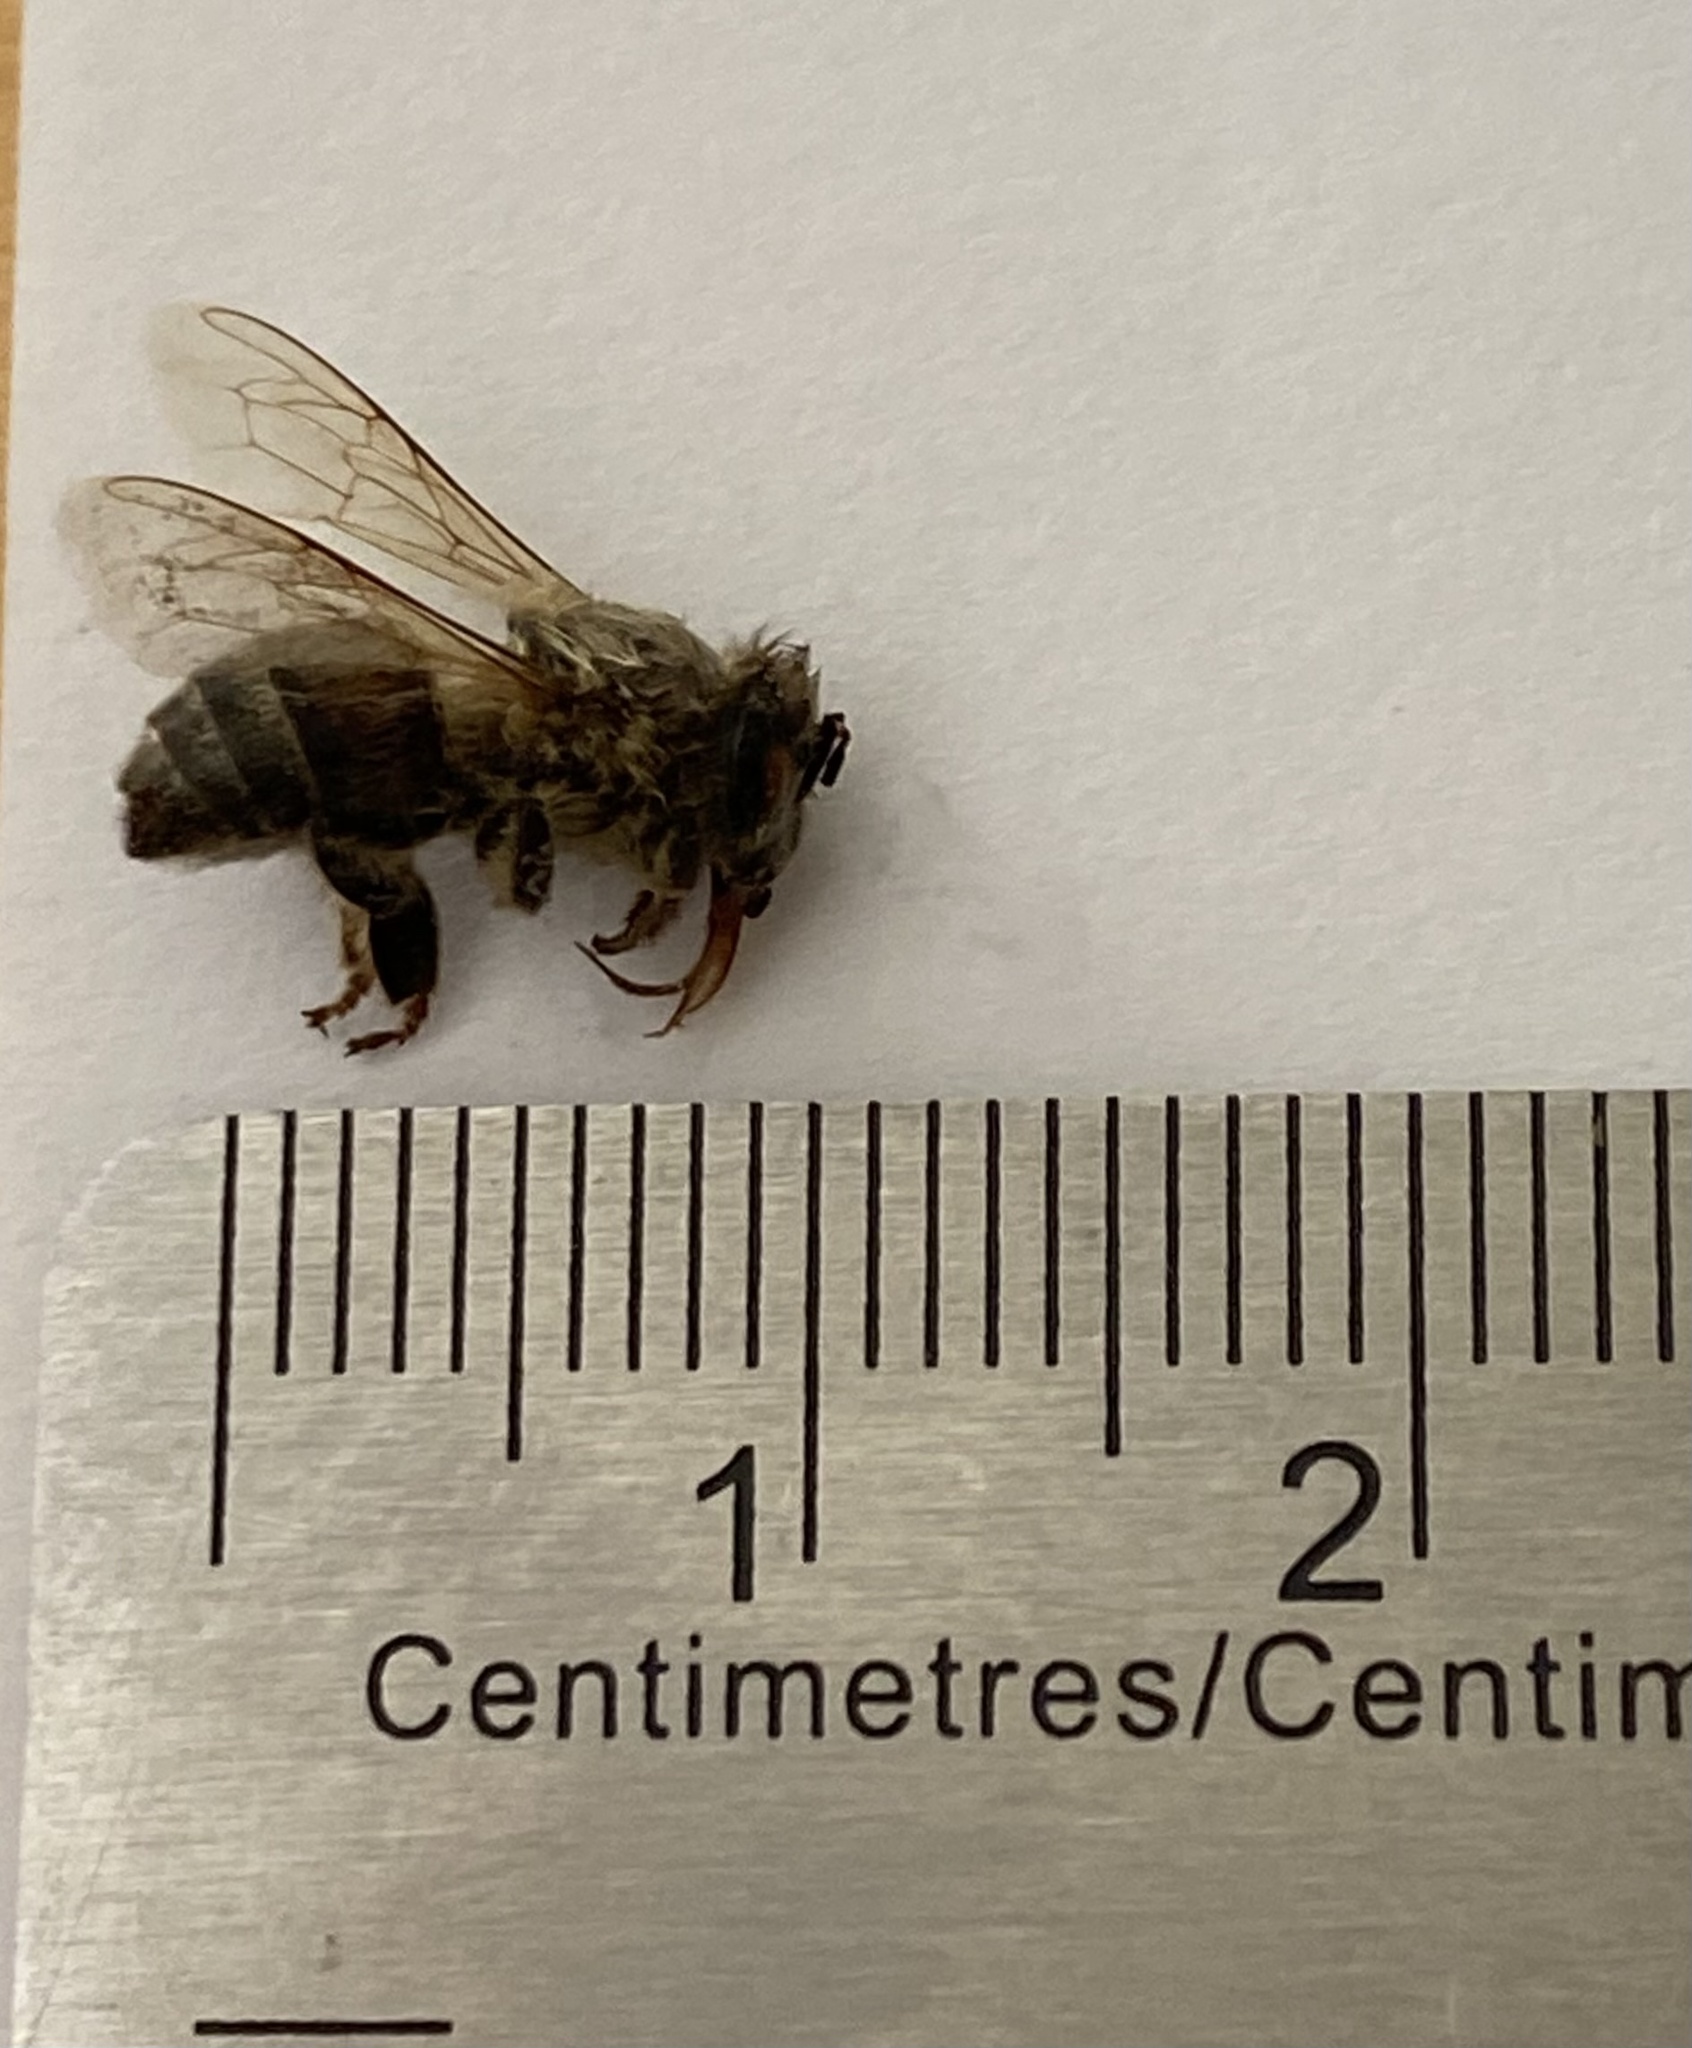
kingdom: Animalia
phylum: Arthropoda
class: Insecta
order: Hymenoptera
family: Apidae
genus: Apis
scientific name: Apis mellifera
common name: Honey bee
